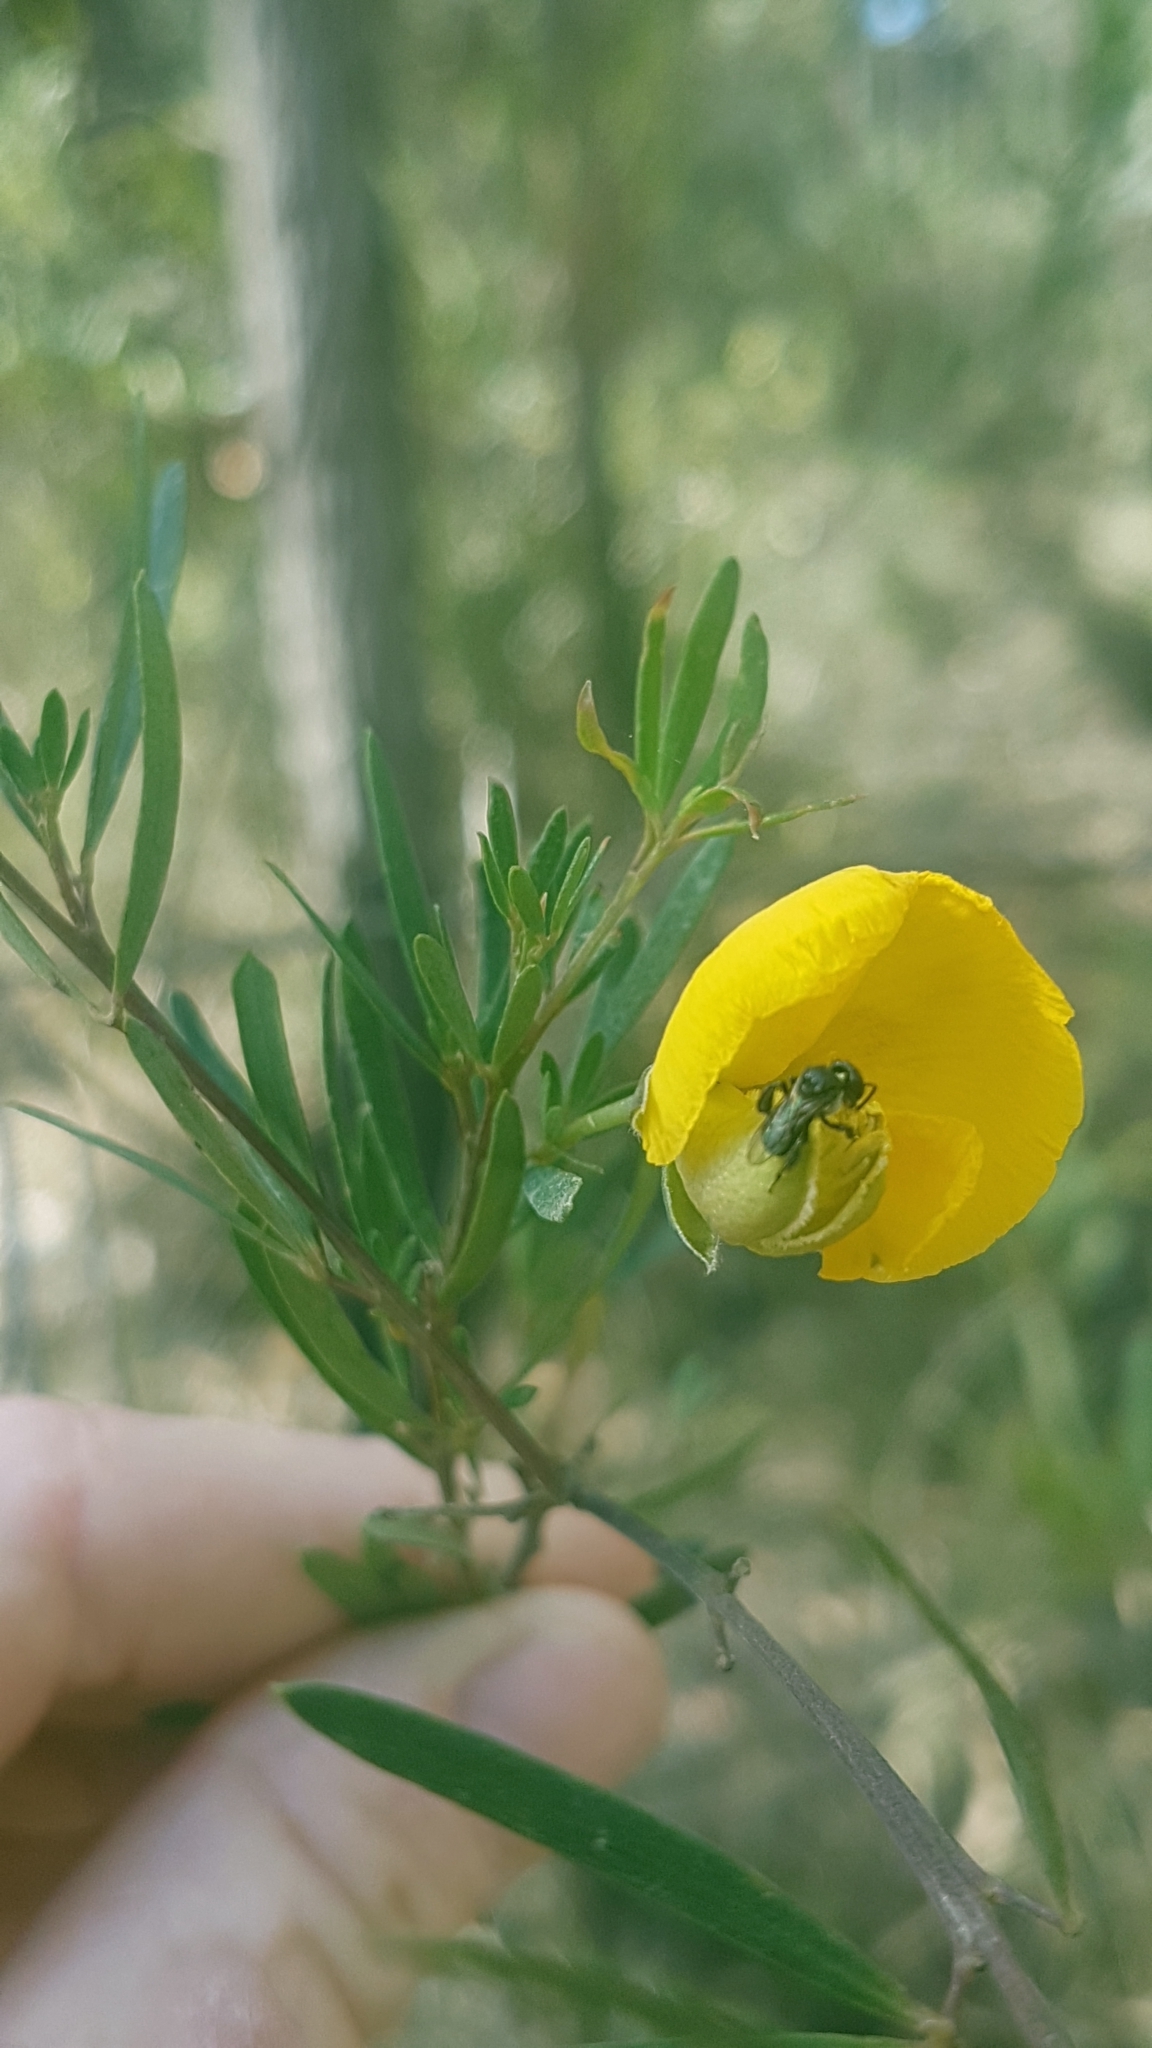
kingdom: Plantae
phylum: Tracheophyta
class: Magnoliopsida
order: Fabales
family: Fabaceae
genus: Gompholobium
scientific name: Gompholobium latifolium
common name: Broadleaf wedge-pea
